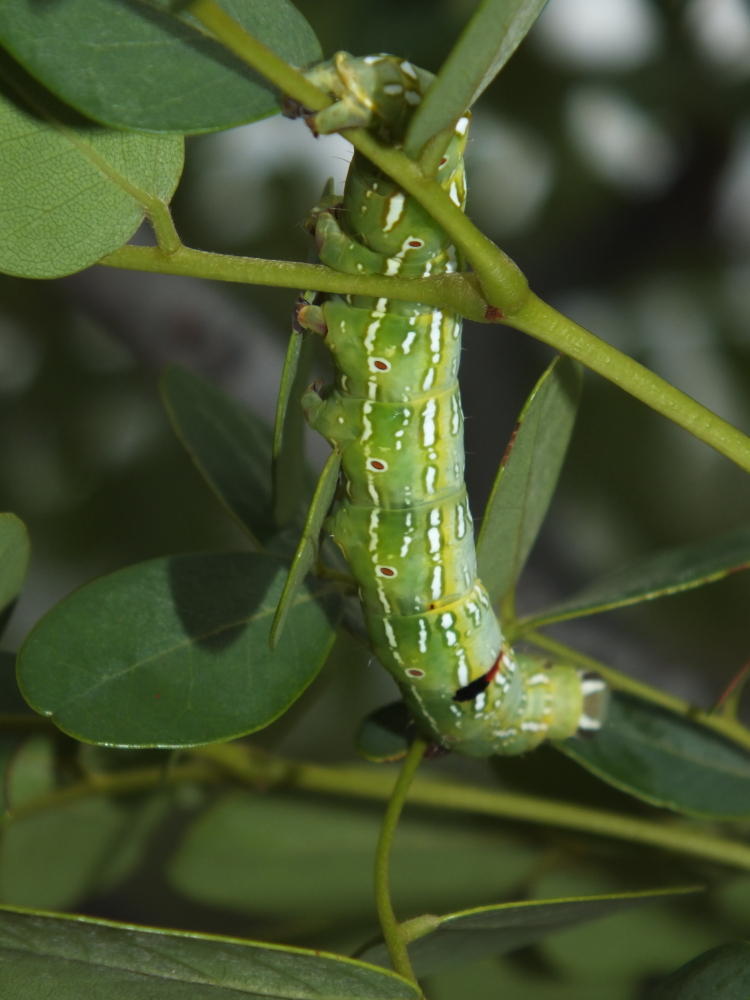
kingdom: Plantae
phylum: Tracheophyta
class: Magnoliopsida
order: Fabales
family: Fabaceae
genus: Burkea
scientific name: Burkea africana
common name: Mkalati tree
